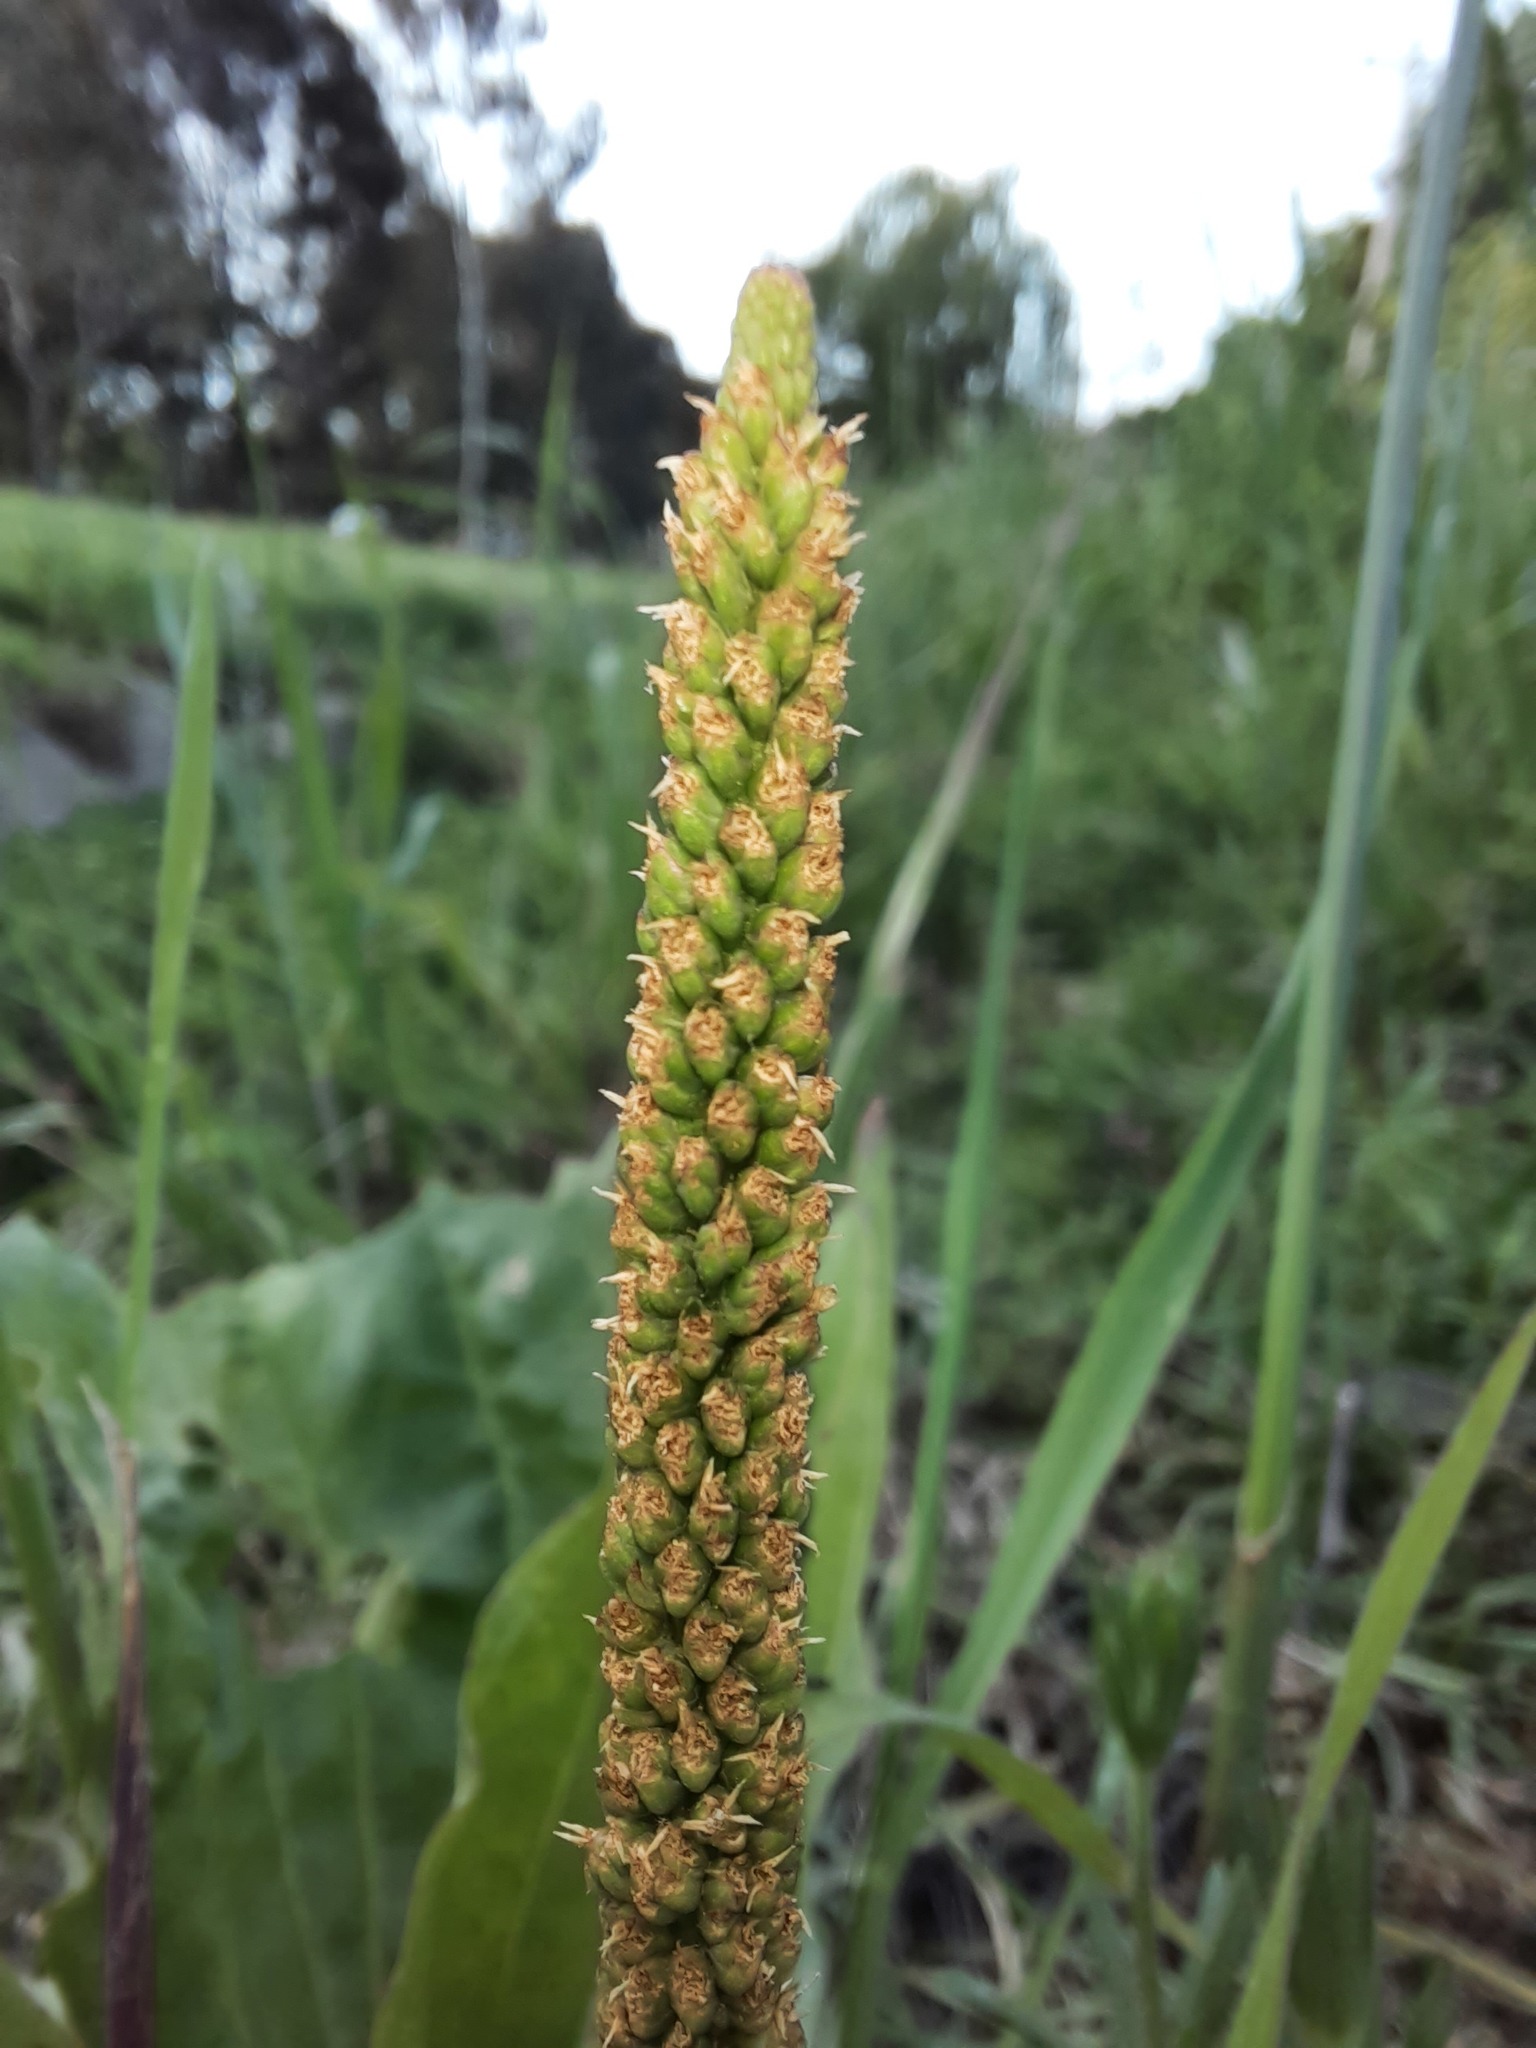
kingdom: Plantae
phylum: Tracheophyta
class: Magnoliopsida
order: Lamiales
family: Plantaginaceae
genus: Plantago
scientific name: Plantago major
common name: Common plantain
